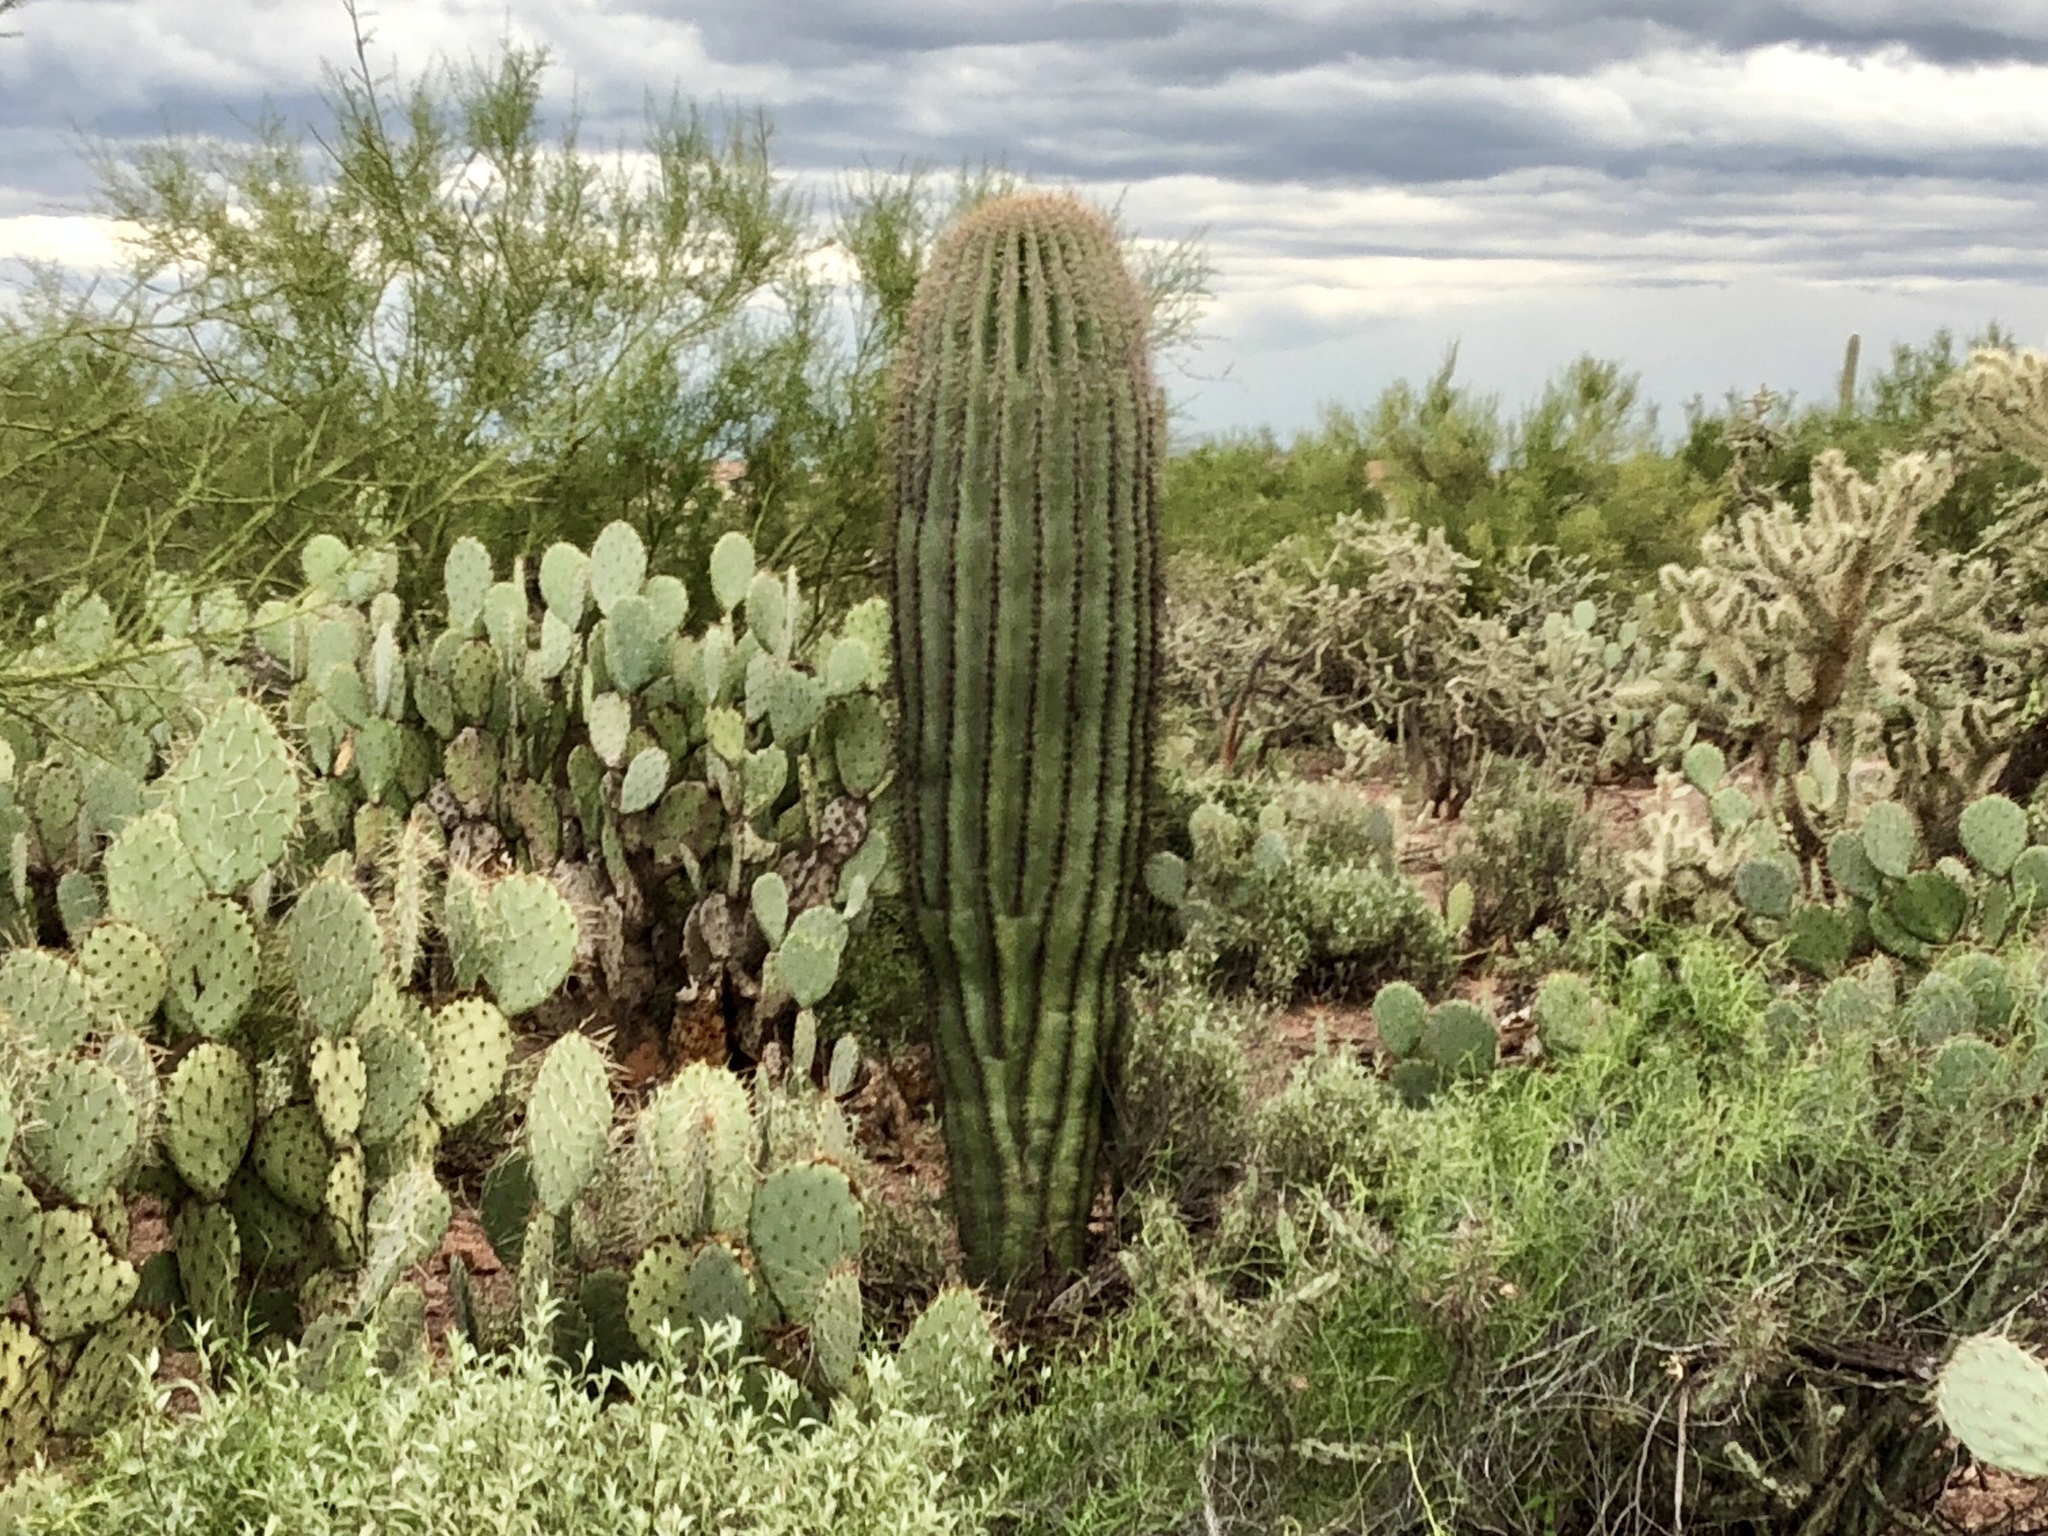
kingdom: Plantae
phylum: Tracheophyta
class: Magnoliopsida
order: Caryophyllales
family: Cactaceae
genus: Carnegiea
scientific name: Carnegiea gigantea
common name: Saguaro
